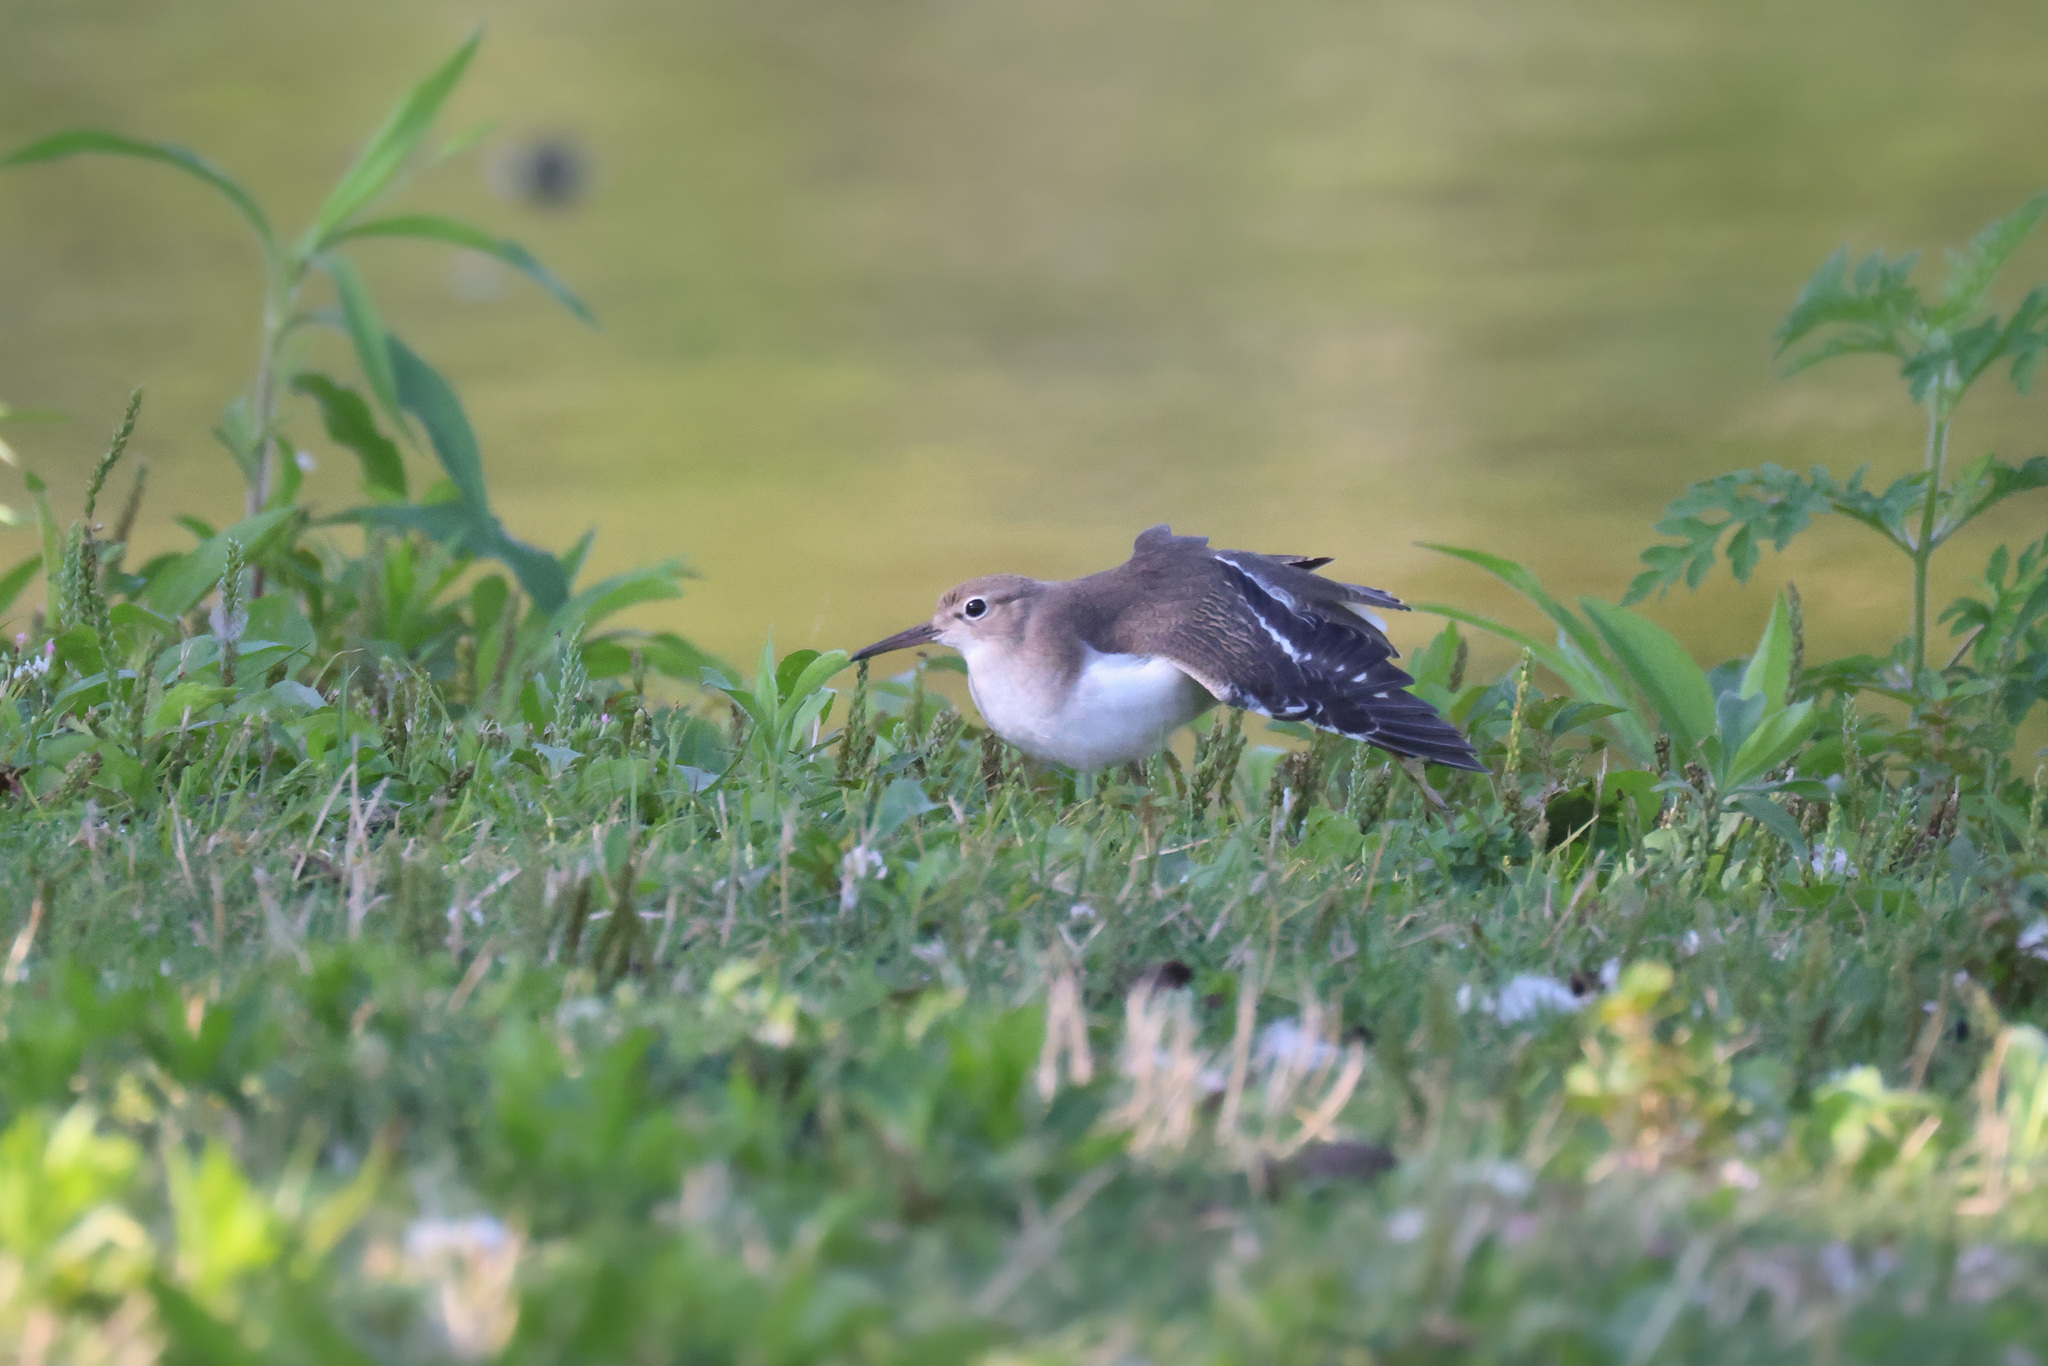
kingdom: Animalia
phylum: Chordata
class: Aves
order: Charadriiformes
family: Scolopacidae
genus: Actitis
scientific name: Actitis macularius
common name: Spotted sandpiper
